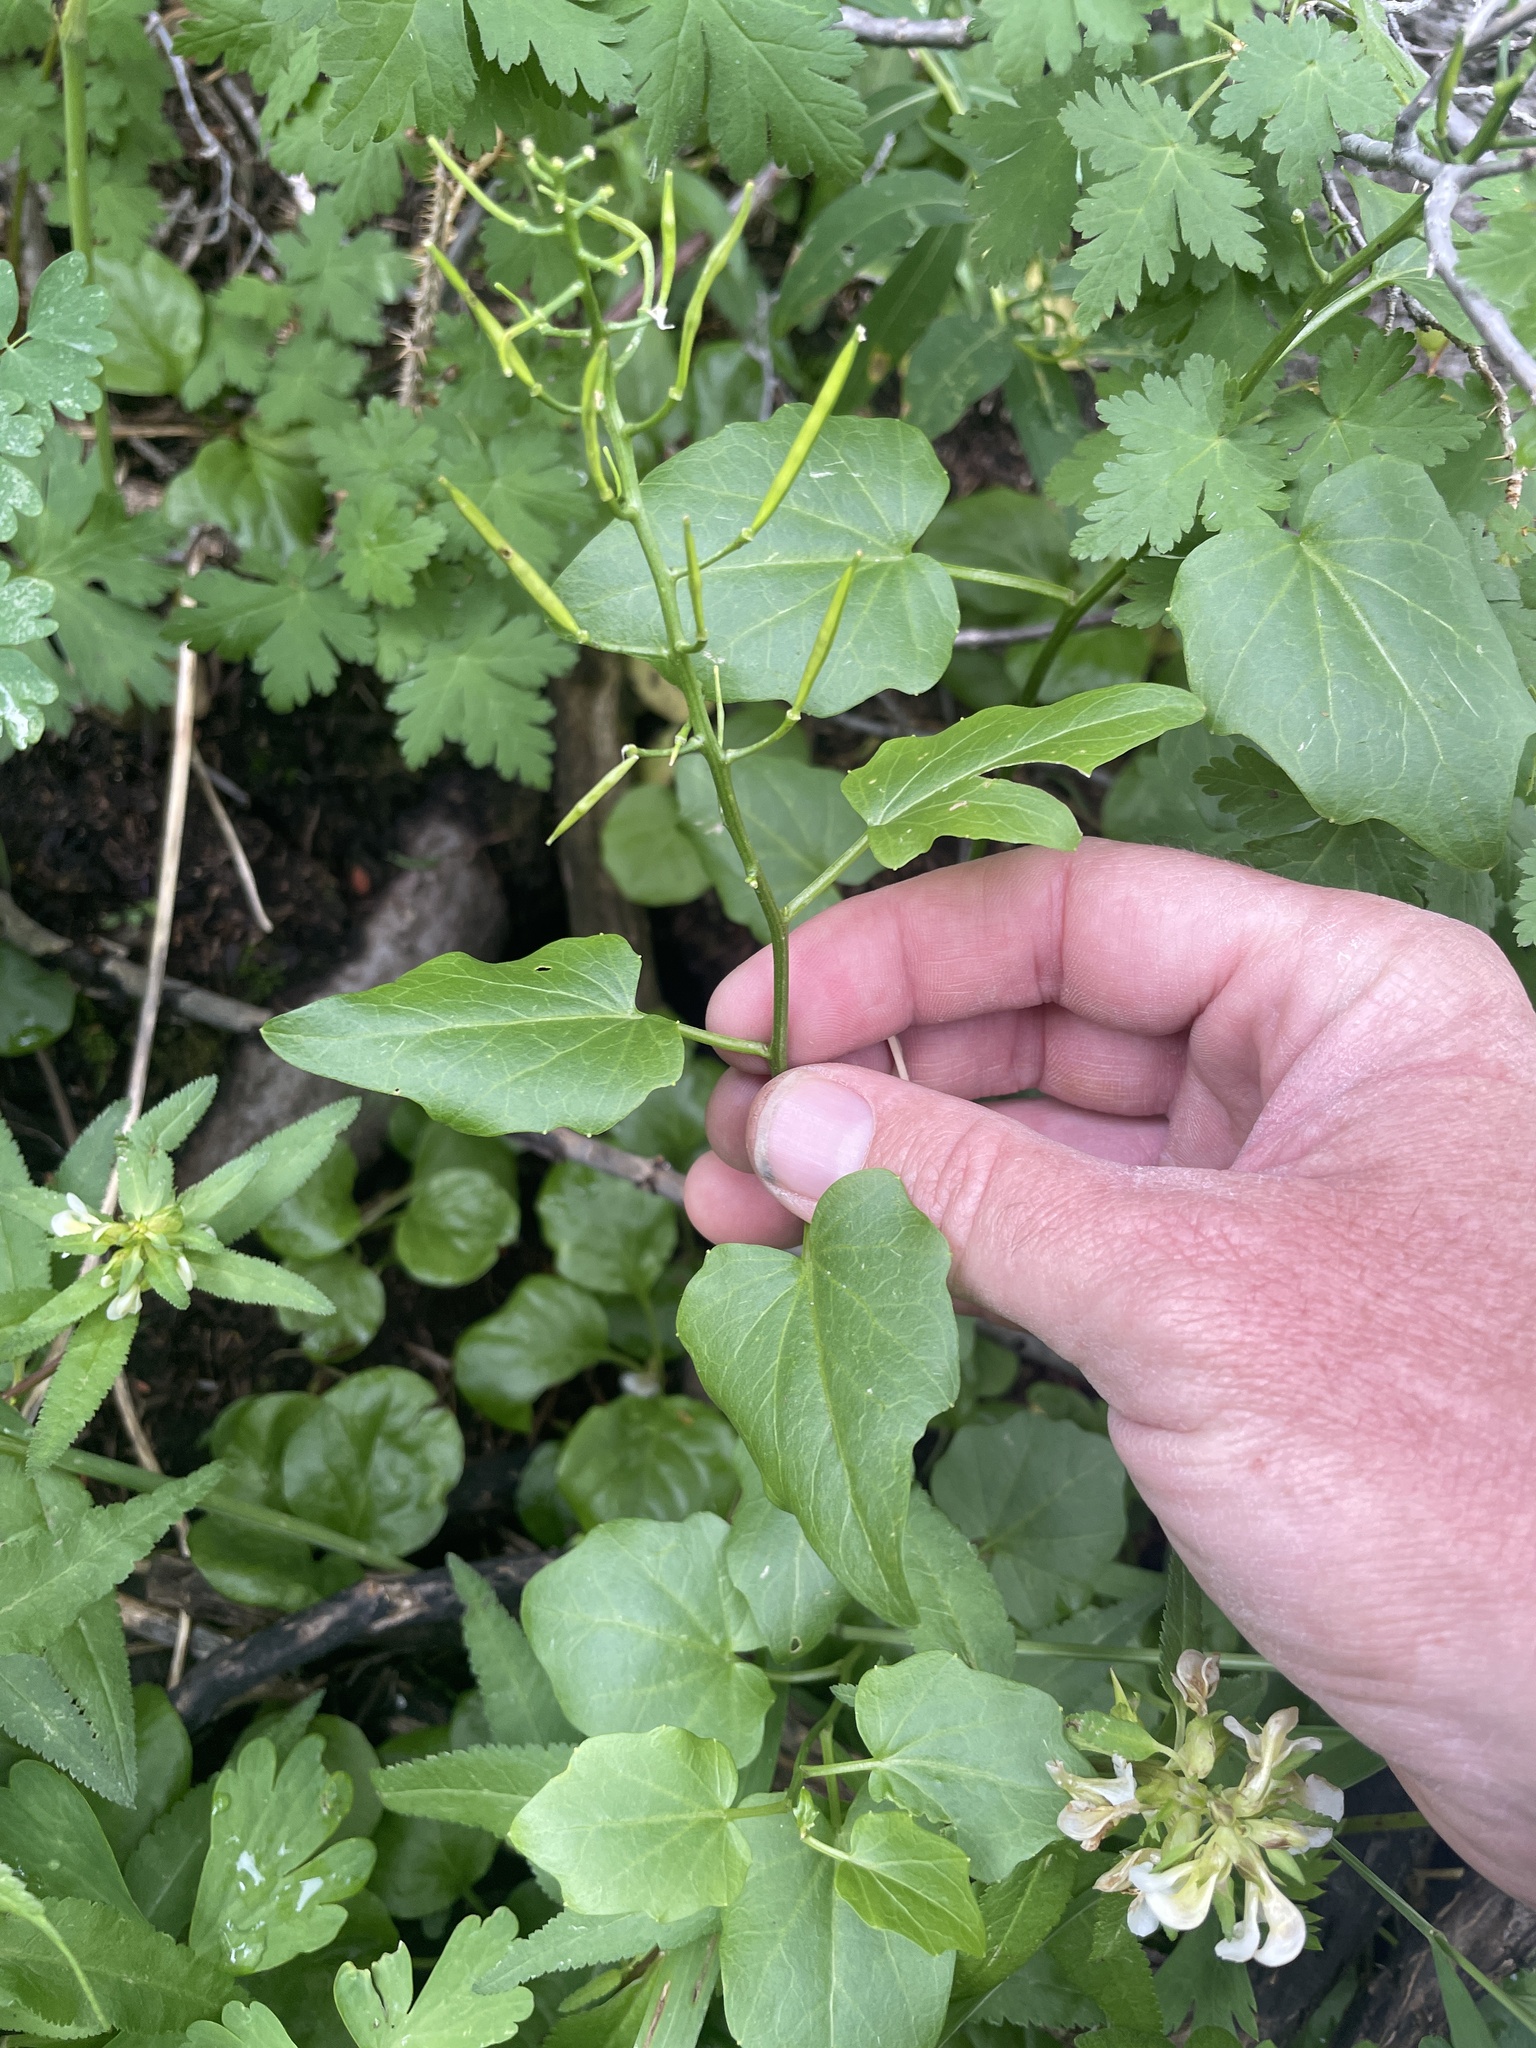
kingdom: Plantae
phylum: Tracheophyta
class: Magnoliopsida
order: Brassicales
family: Brassicaceae
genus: Cardamine
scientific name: Cardamine cordifolia
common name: Heart-leaf bittercress
